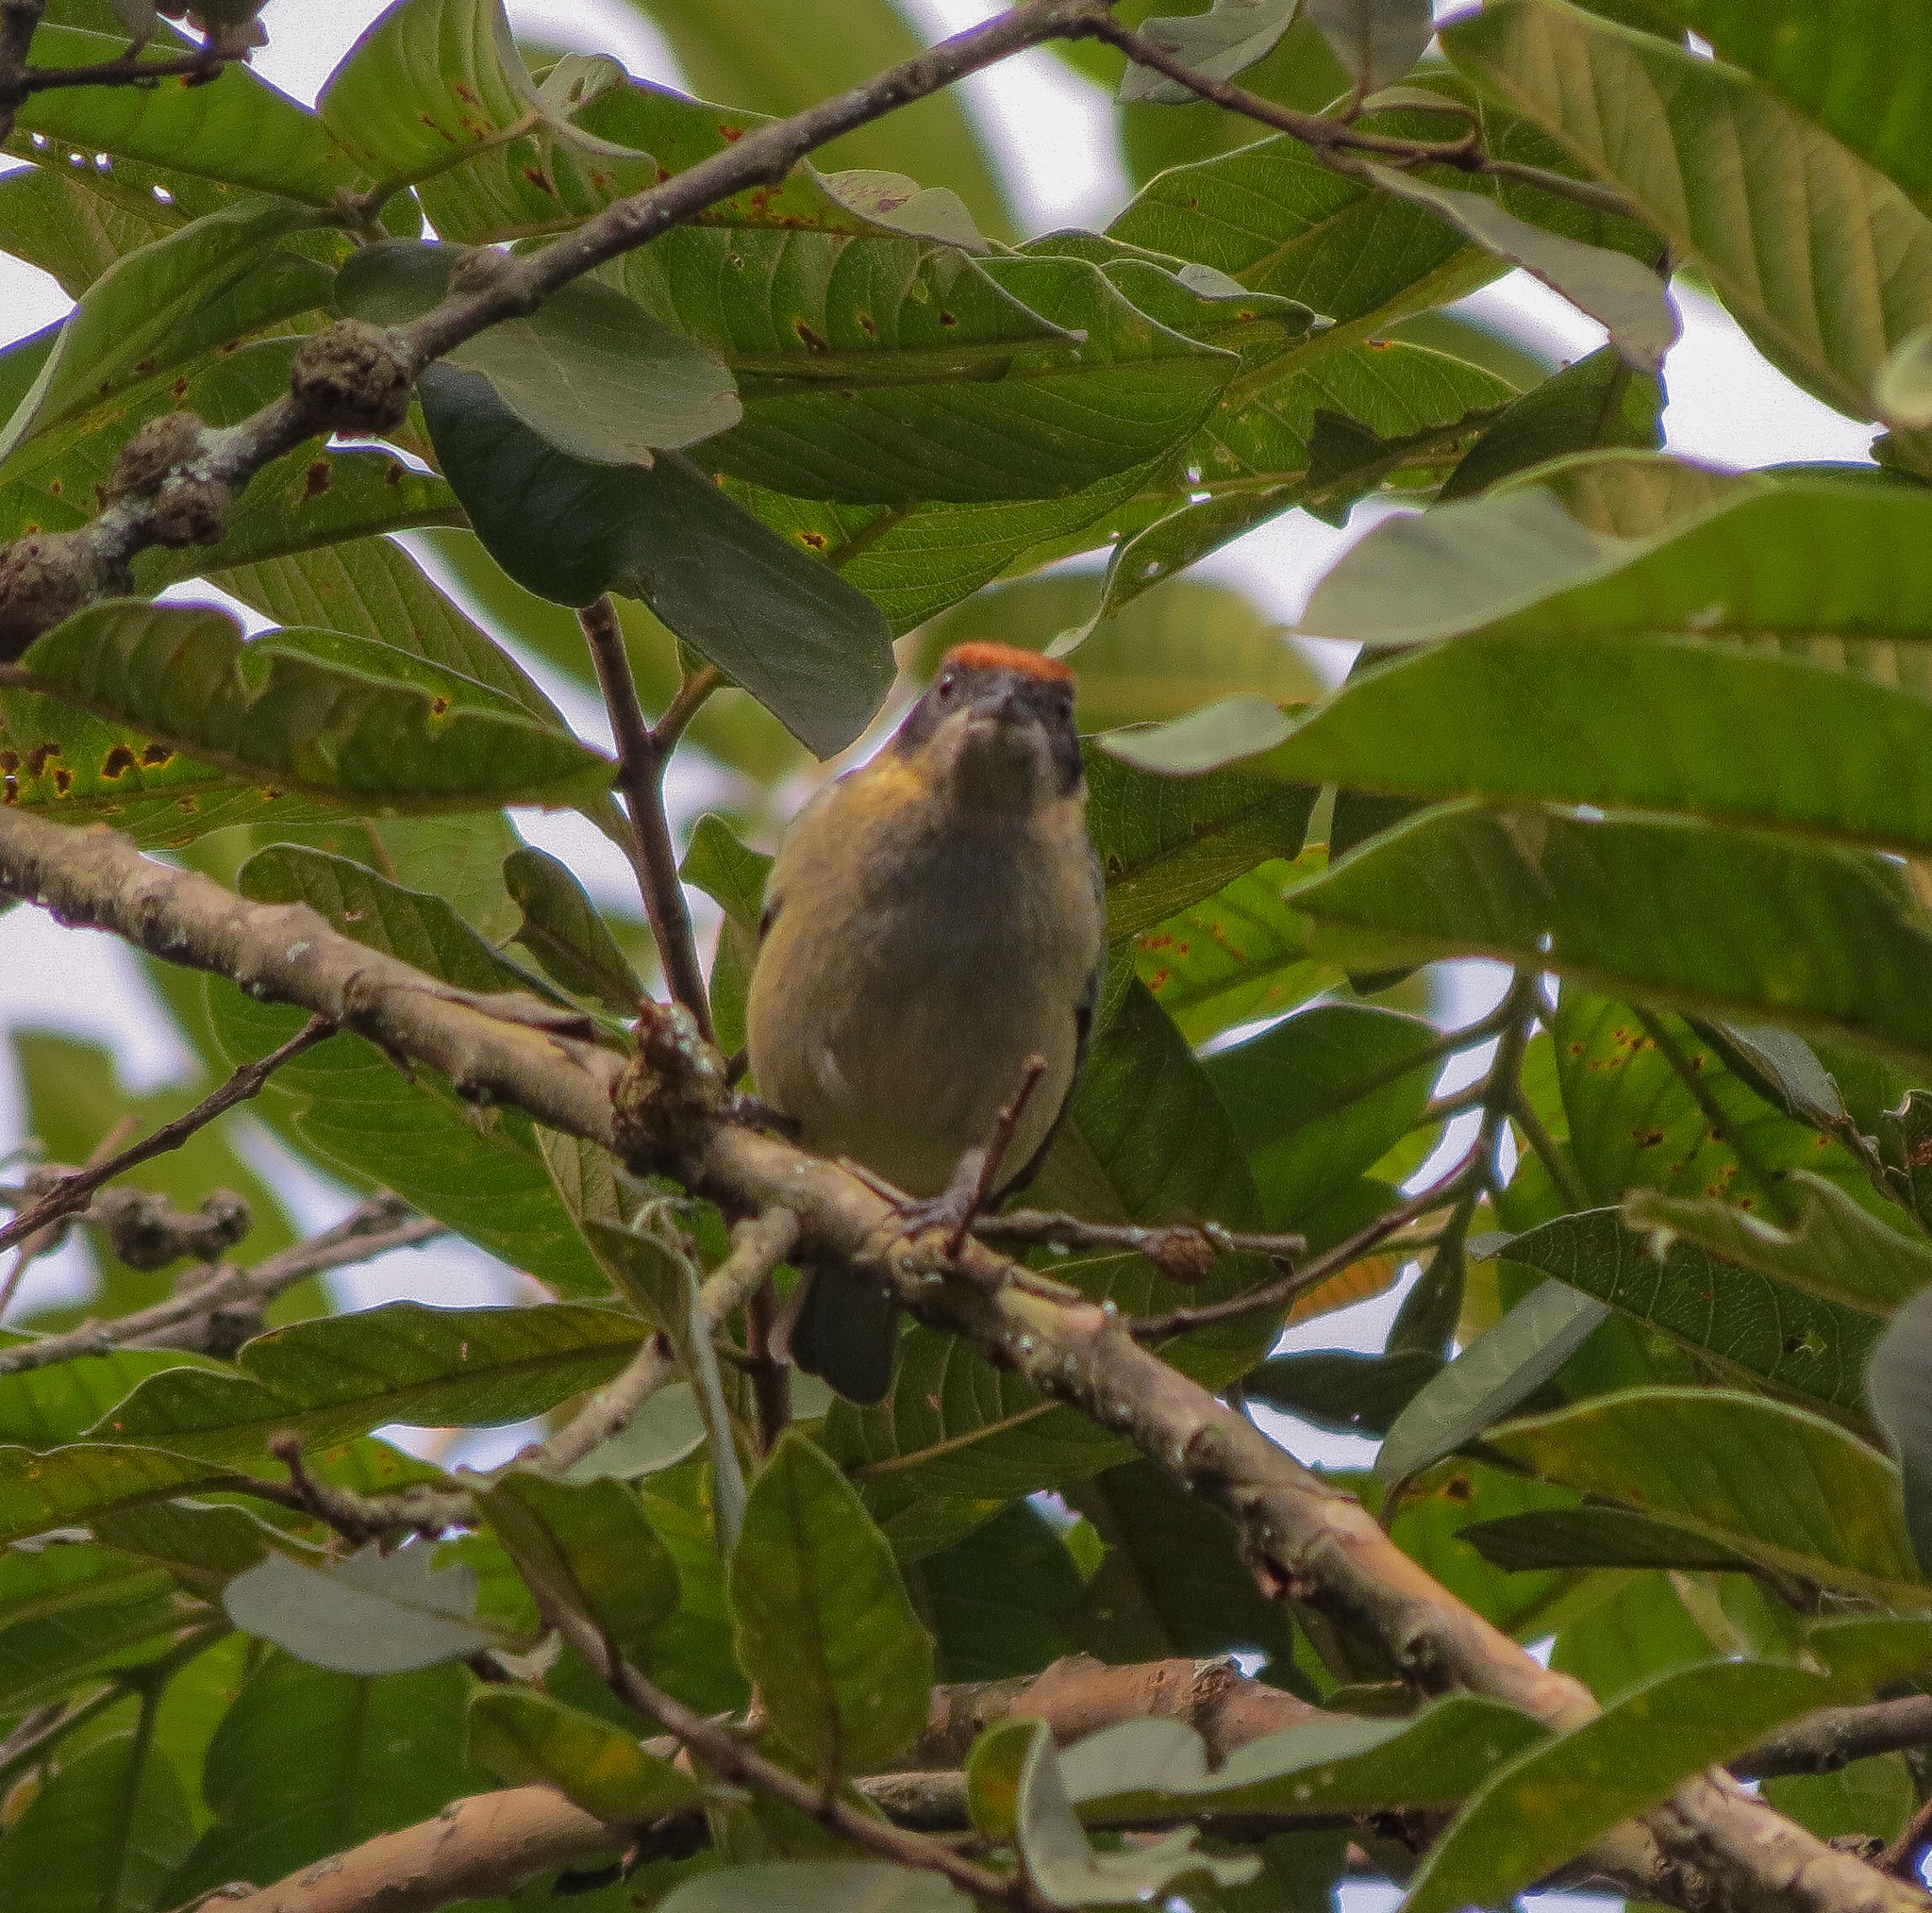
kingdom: Animalia
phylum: Chordata
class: Aves
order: Passeriformes
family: Thraupidae
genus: Stilpnia
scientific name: Stilpnia vitriolina
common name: Scrub tanager
